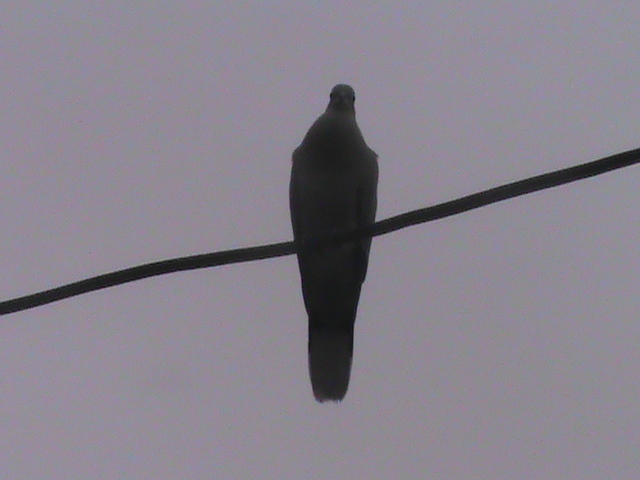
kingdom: Animalia
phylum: Chordata
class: Aves
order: Columbiformes
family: Columbidae
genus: Streptopelia
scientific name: Streptopelia decaocto
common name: Eurasian collared dove
